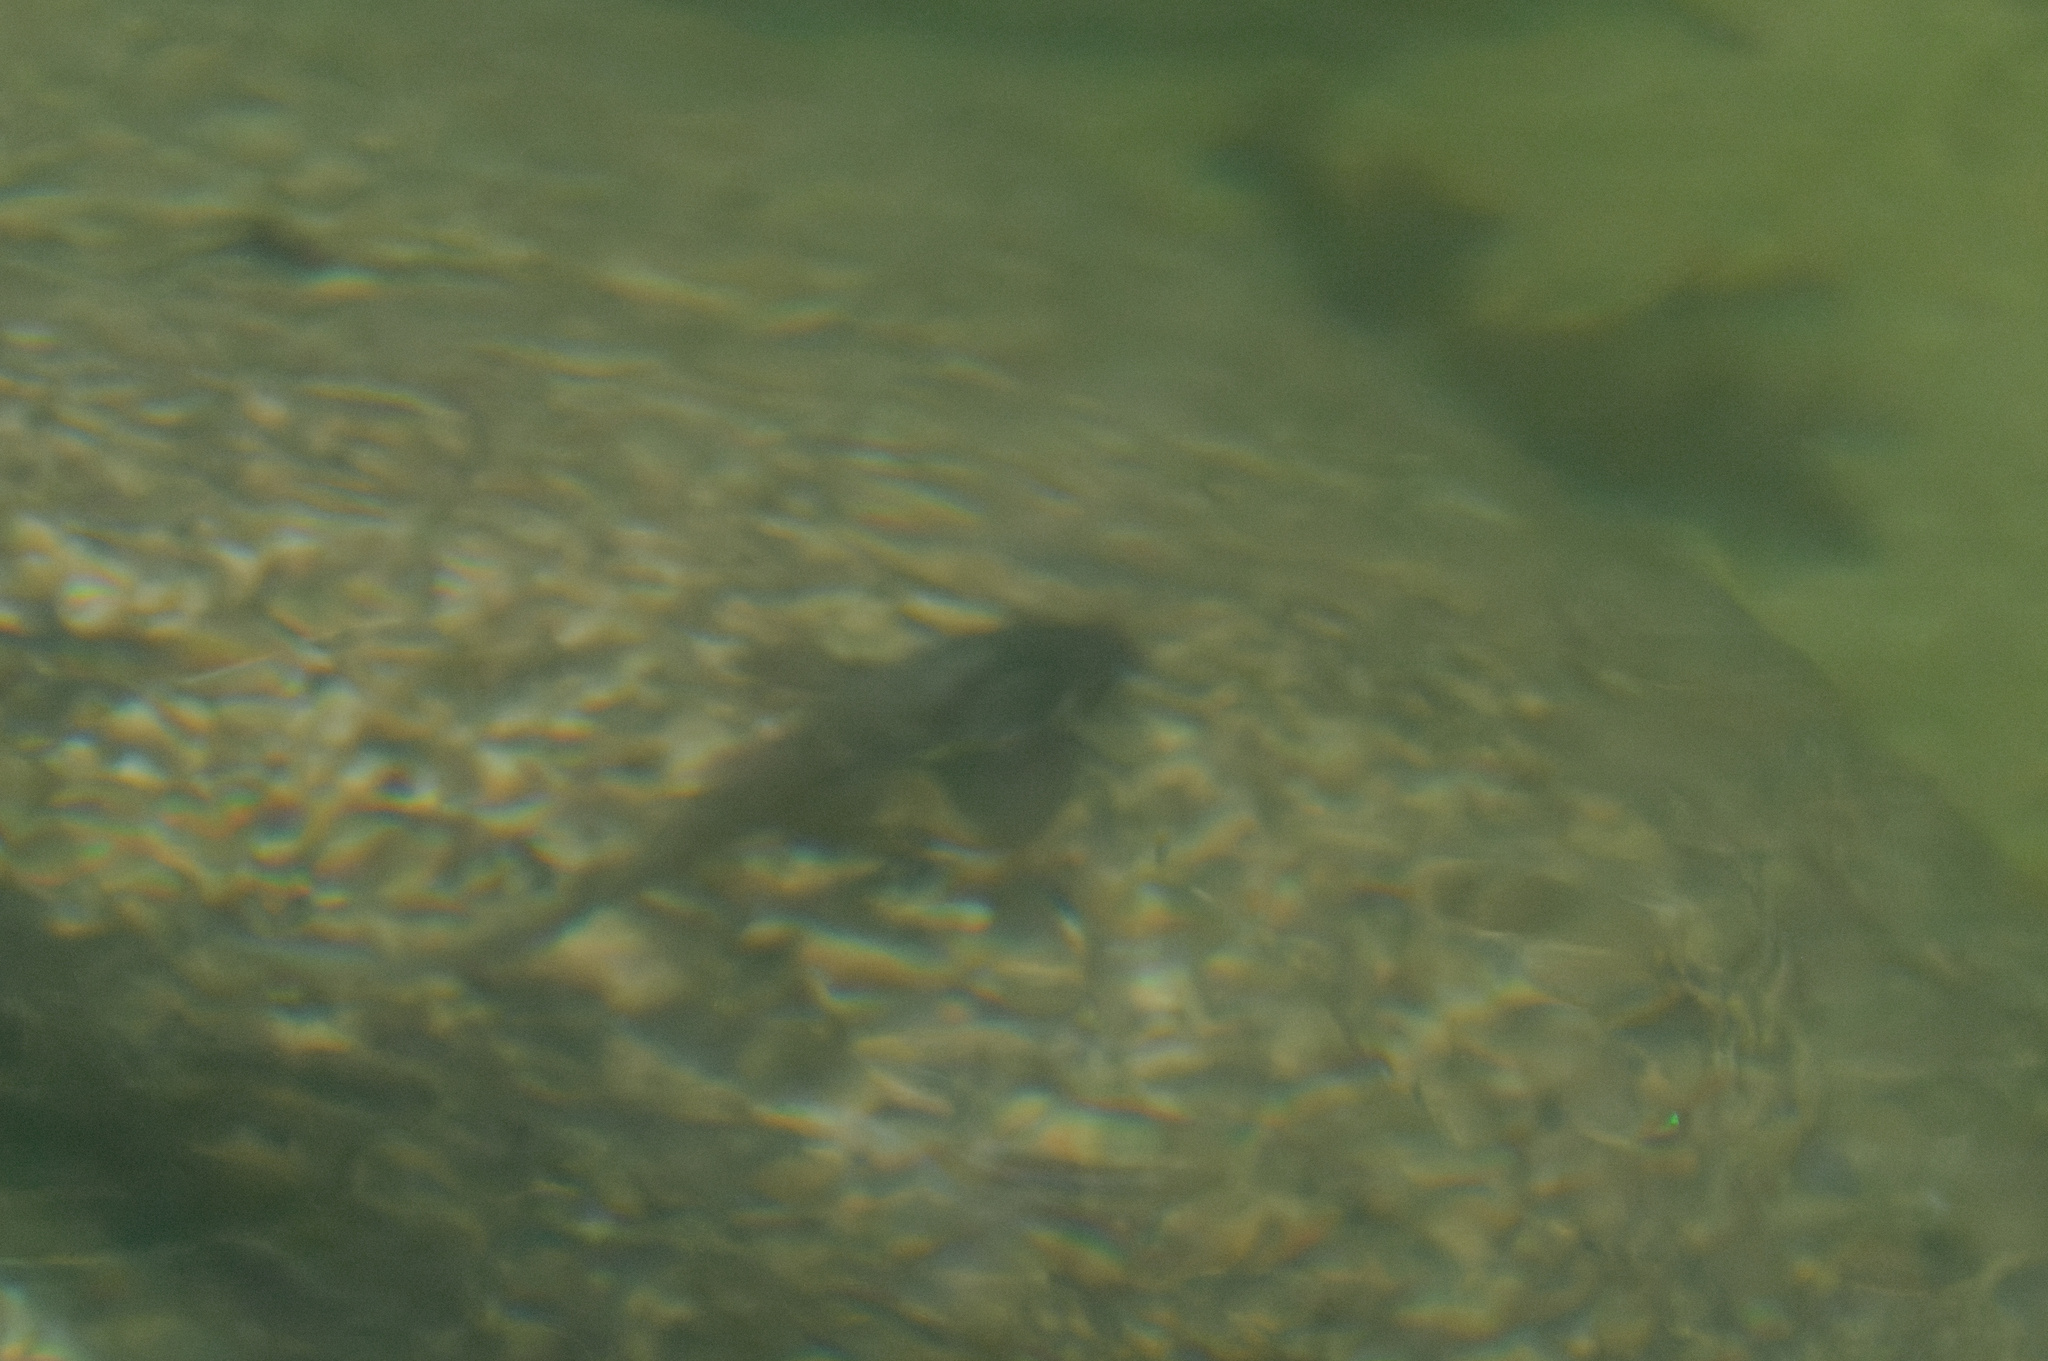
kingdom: Animalia
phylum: Chordata
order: Siluriformes
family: Plotosidae
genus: Tandanus
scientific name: Tandanus tropicanus
